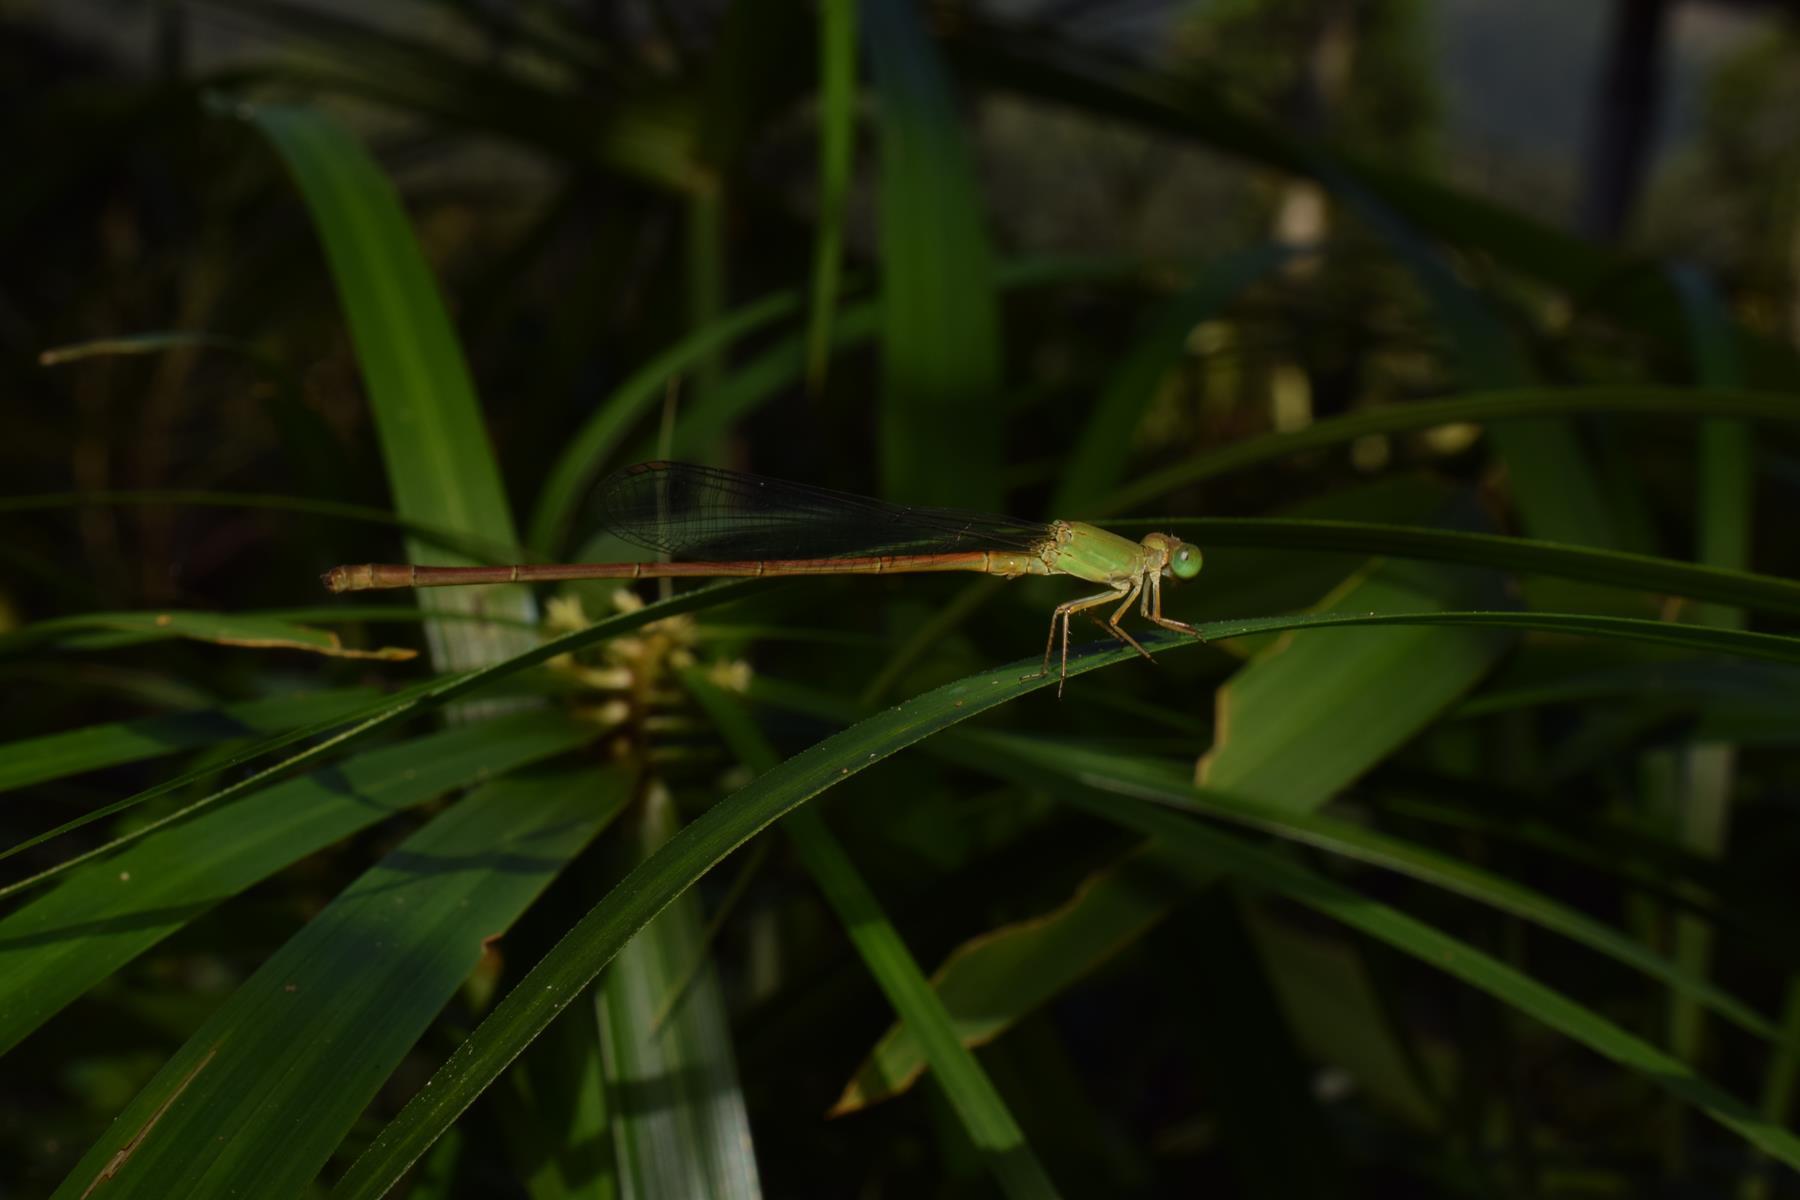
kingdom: Animalia
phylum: Arthropoda
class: Insecta
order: Odonata
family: Coenagrionidae
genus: Ceriagrion
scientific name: Ceriagrion olivaceum
